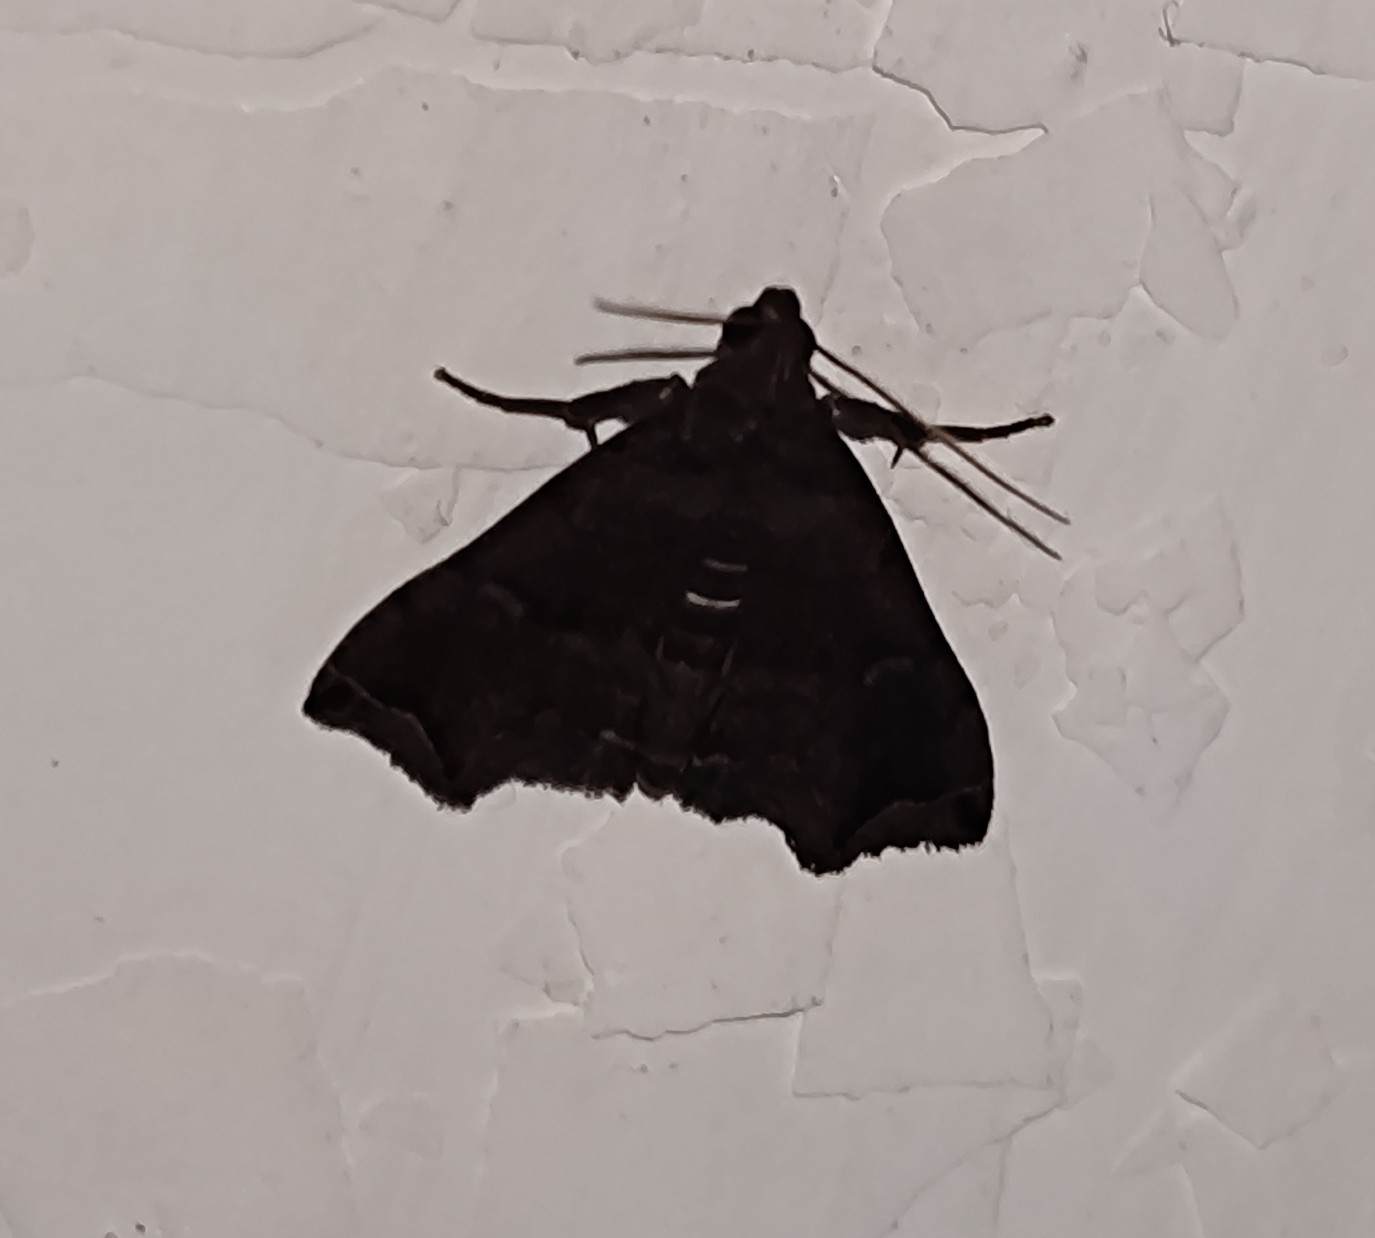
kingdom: Animalia
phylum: Arthropoda
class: Insecta
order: Lepidoptera
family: Erebidae
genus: Polypogon
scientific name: Polypogon biasalis
